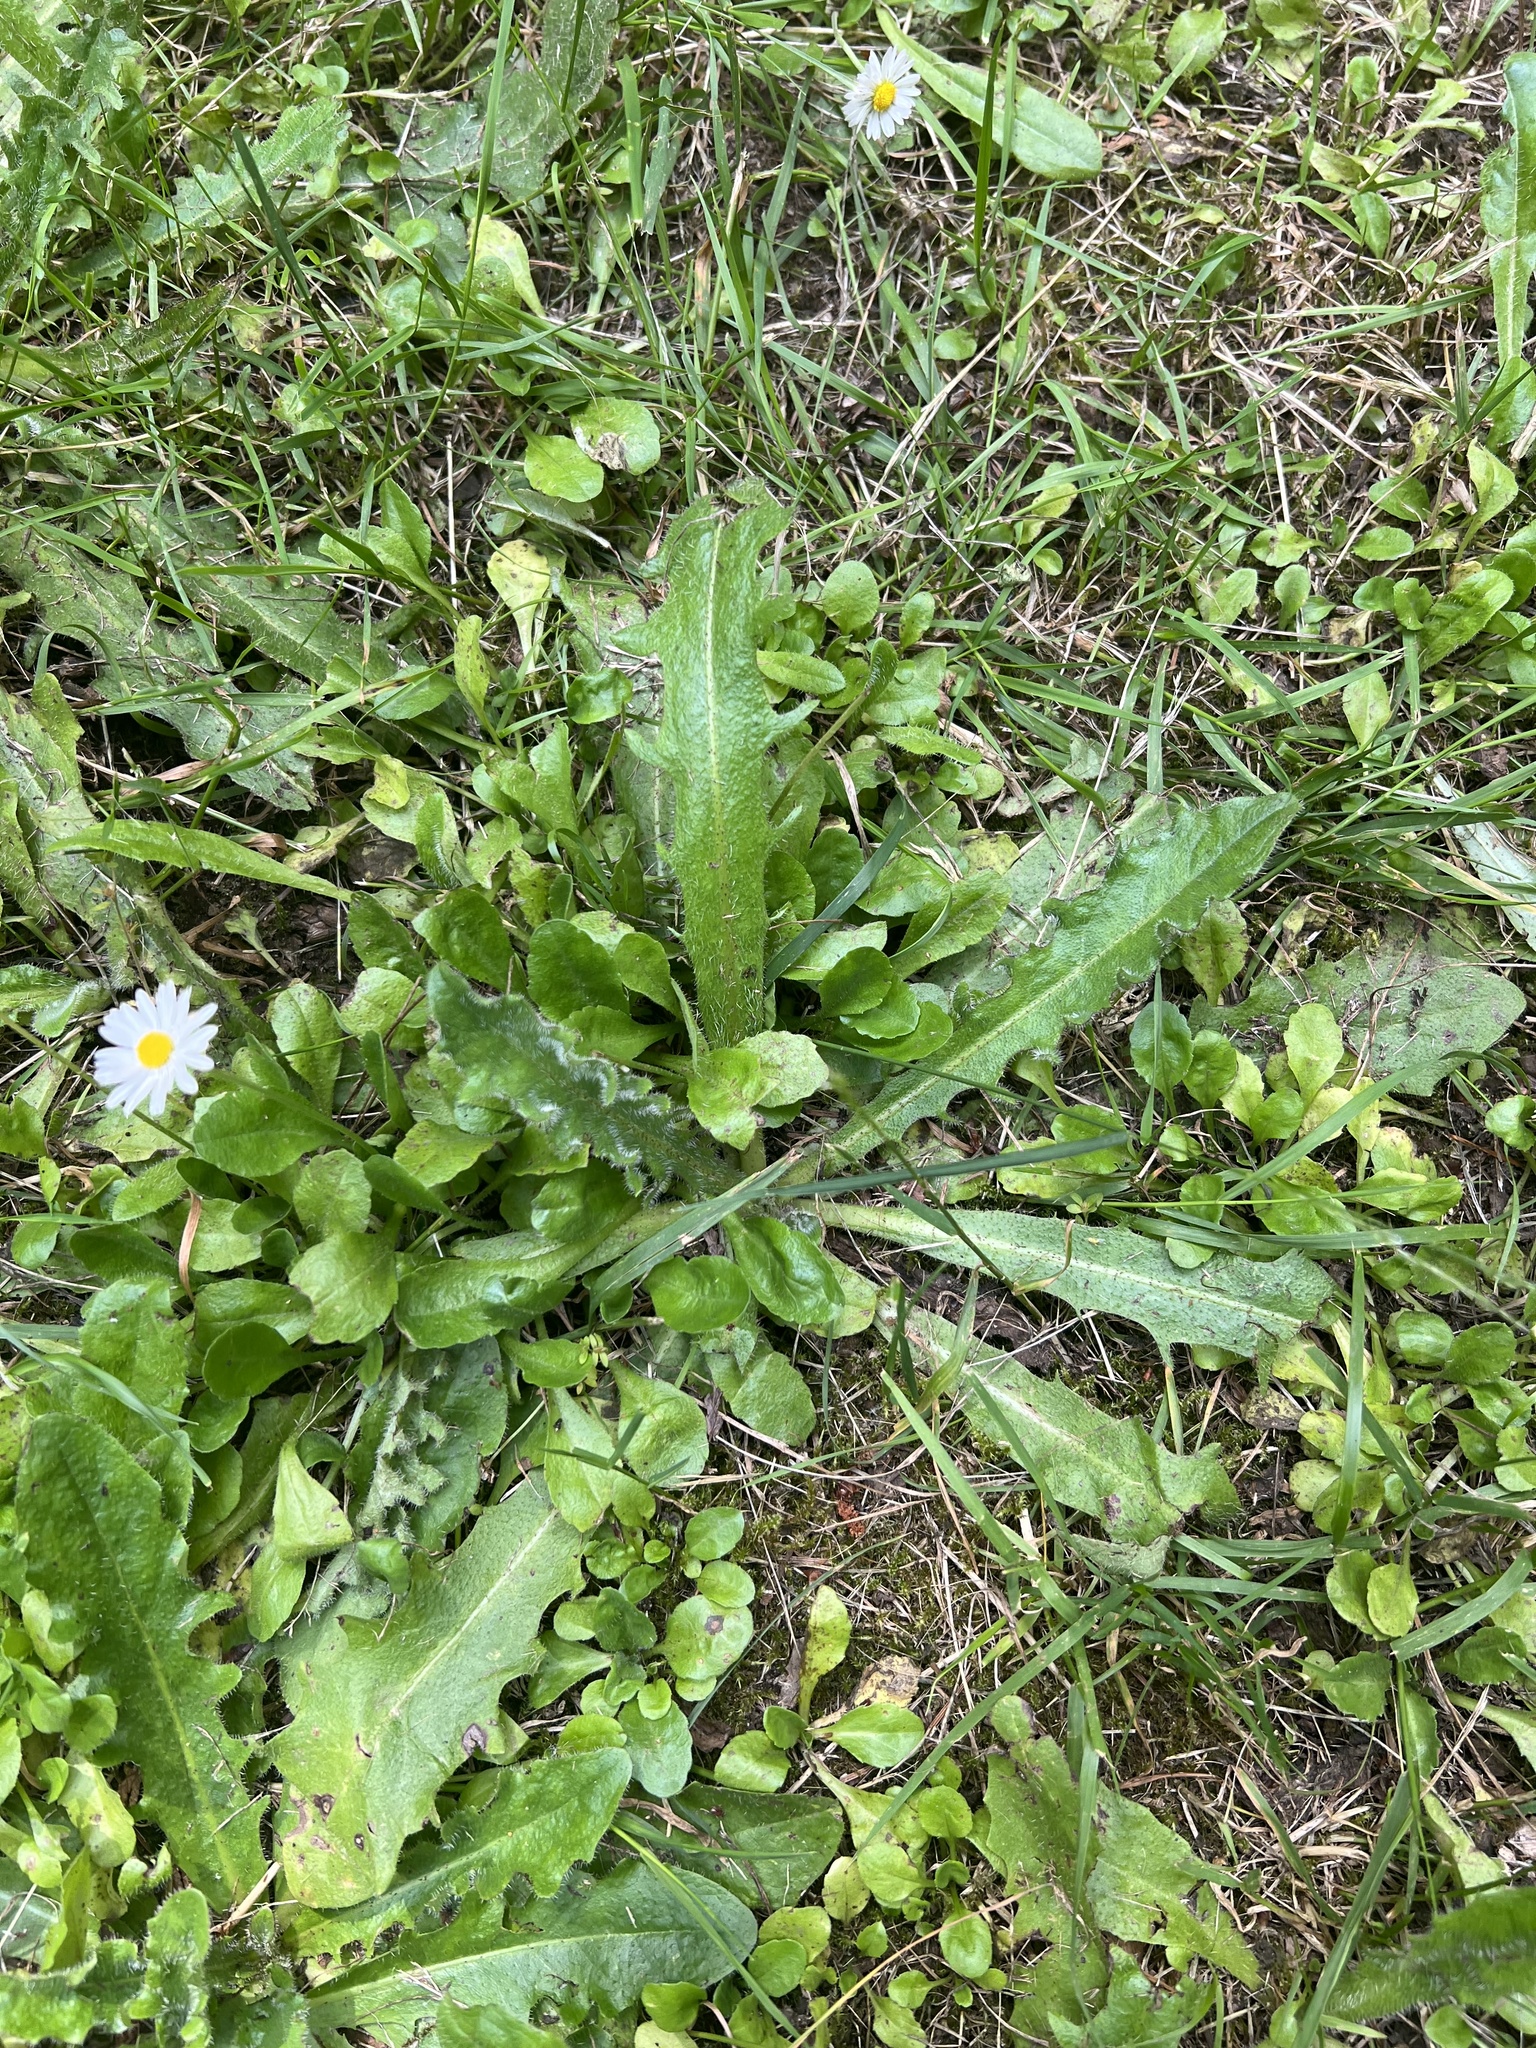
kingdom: Plantae
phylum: Tracheophyta
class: Magnoliopsida
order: Asterales
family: Asteraceae
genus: Hypochaeris
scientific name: Hypochaeris radicata
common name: Flatweed
